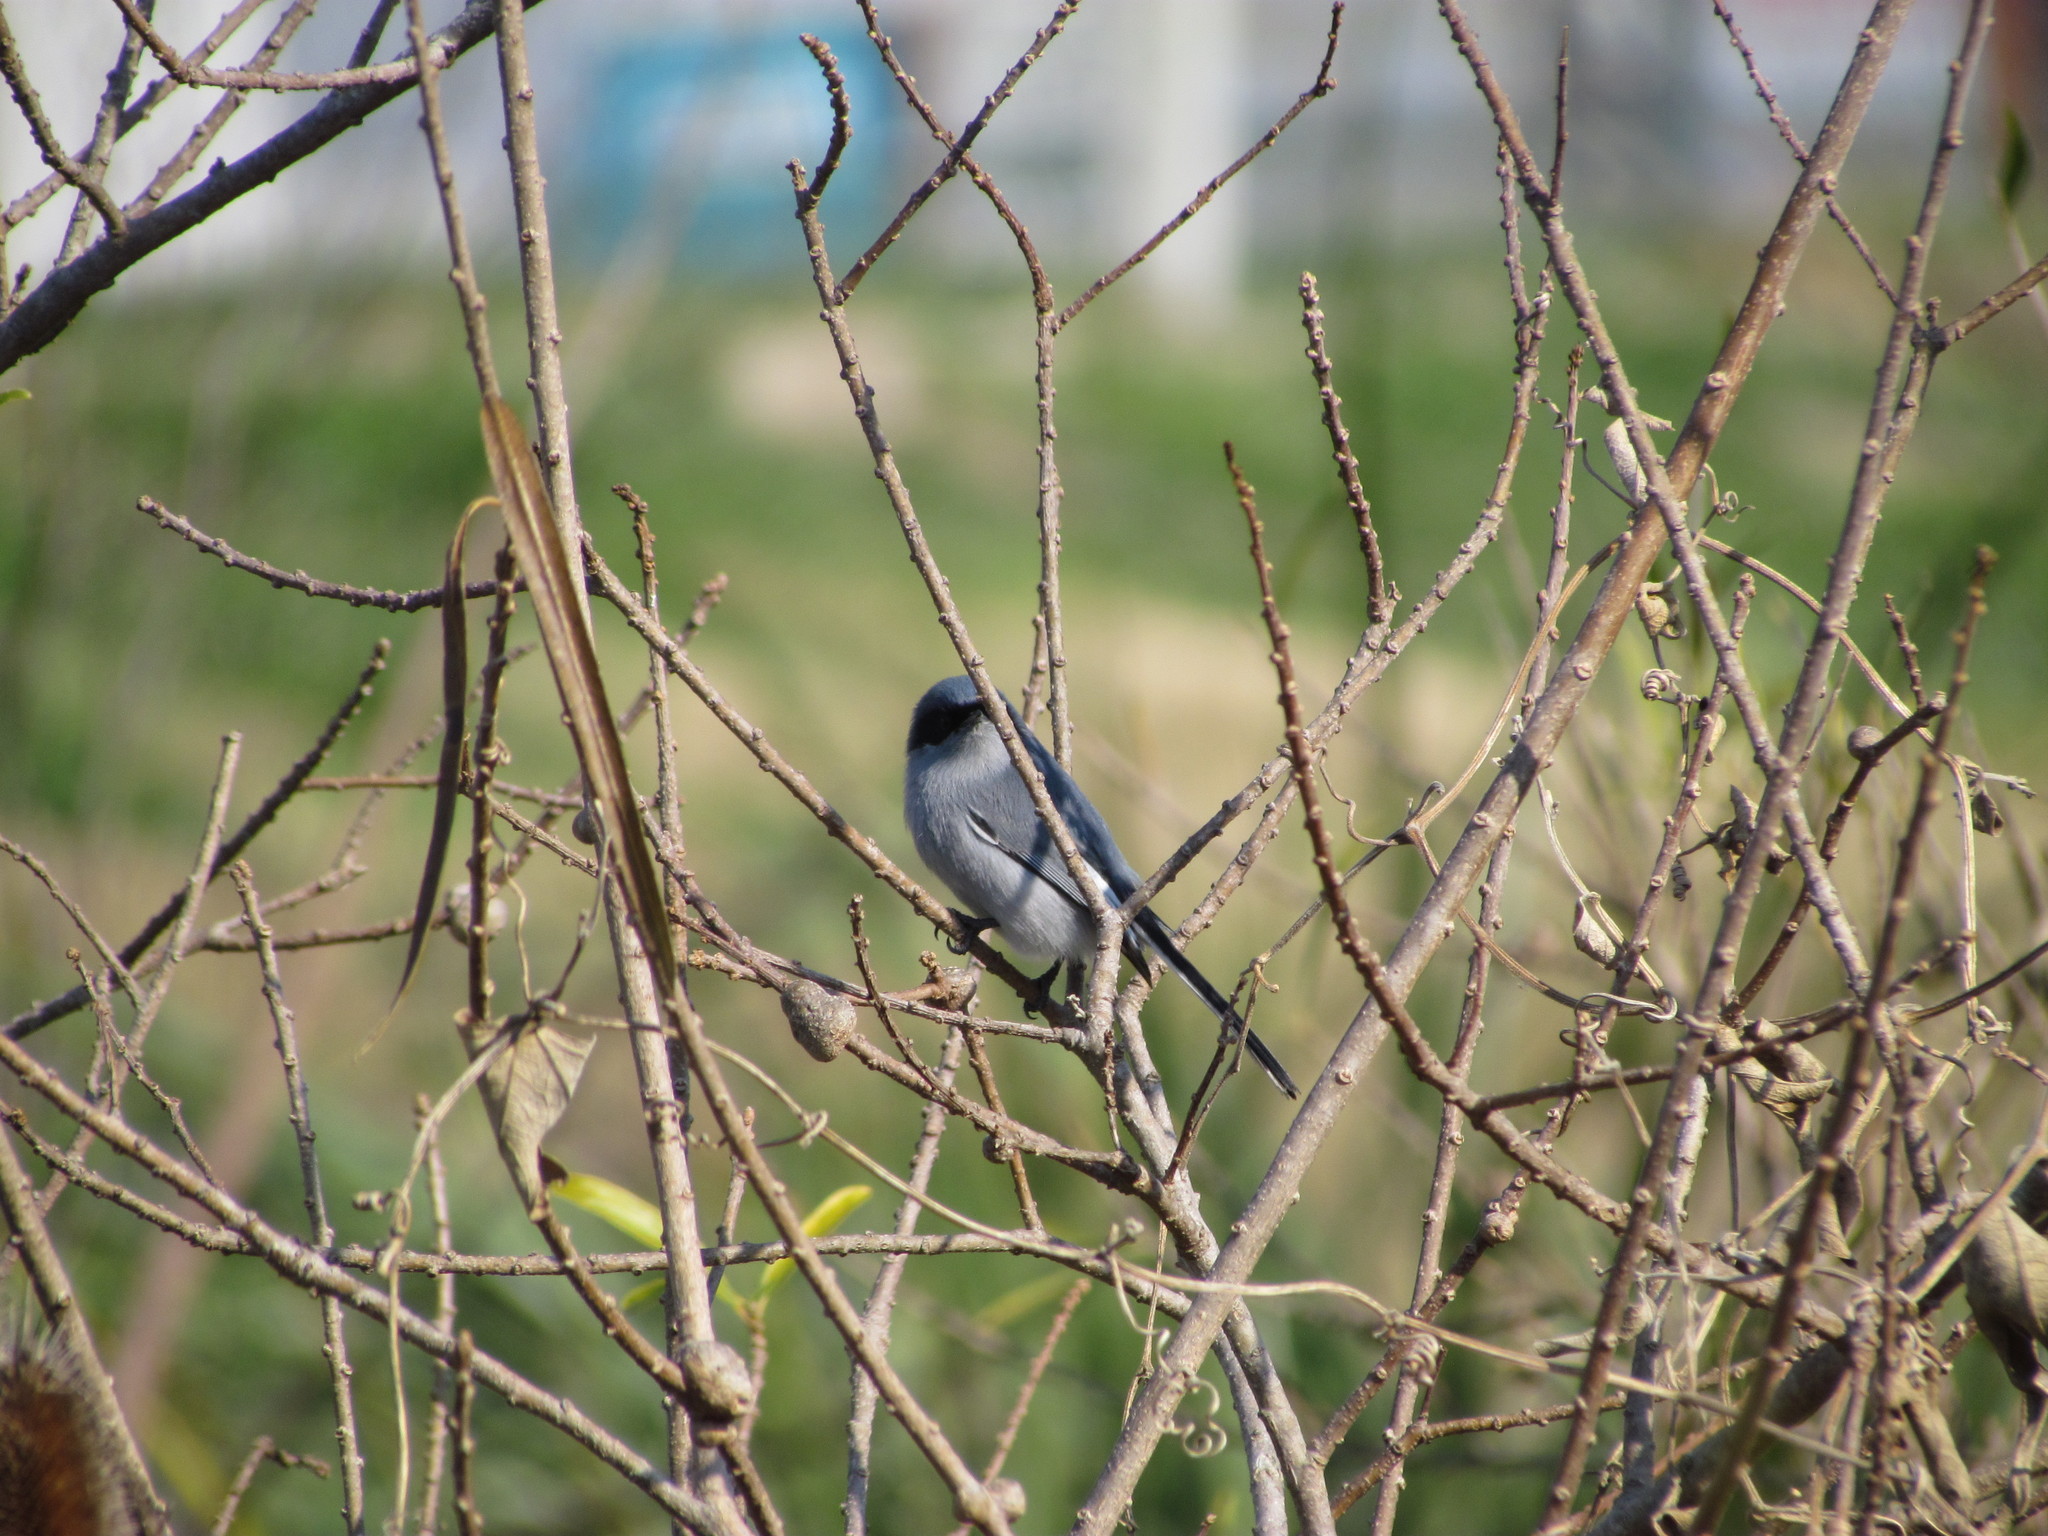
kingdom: Animalia
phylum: Chordata
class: Aves
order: Passeriformes
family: Polioptilidae
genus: Polioptila
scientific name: Polioptila dumicola
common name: Masked gnatcatcher
